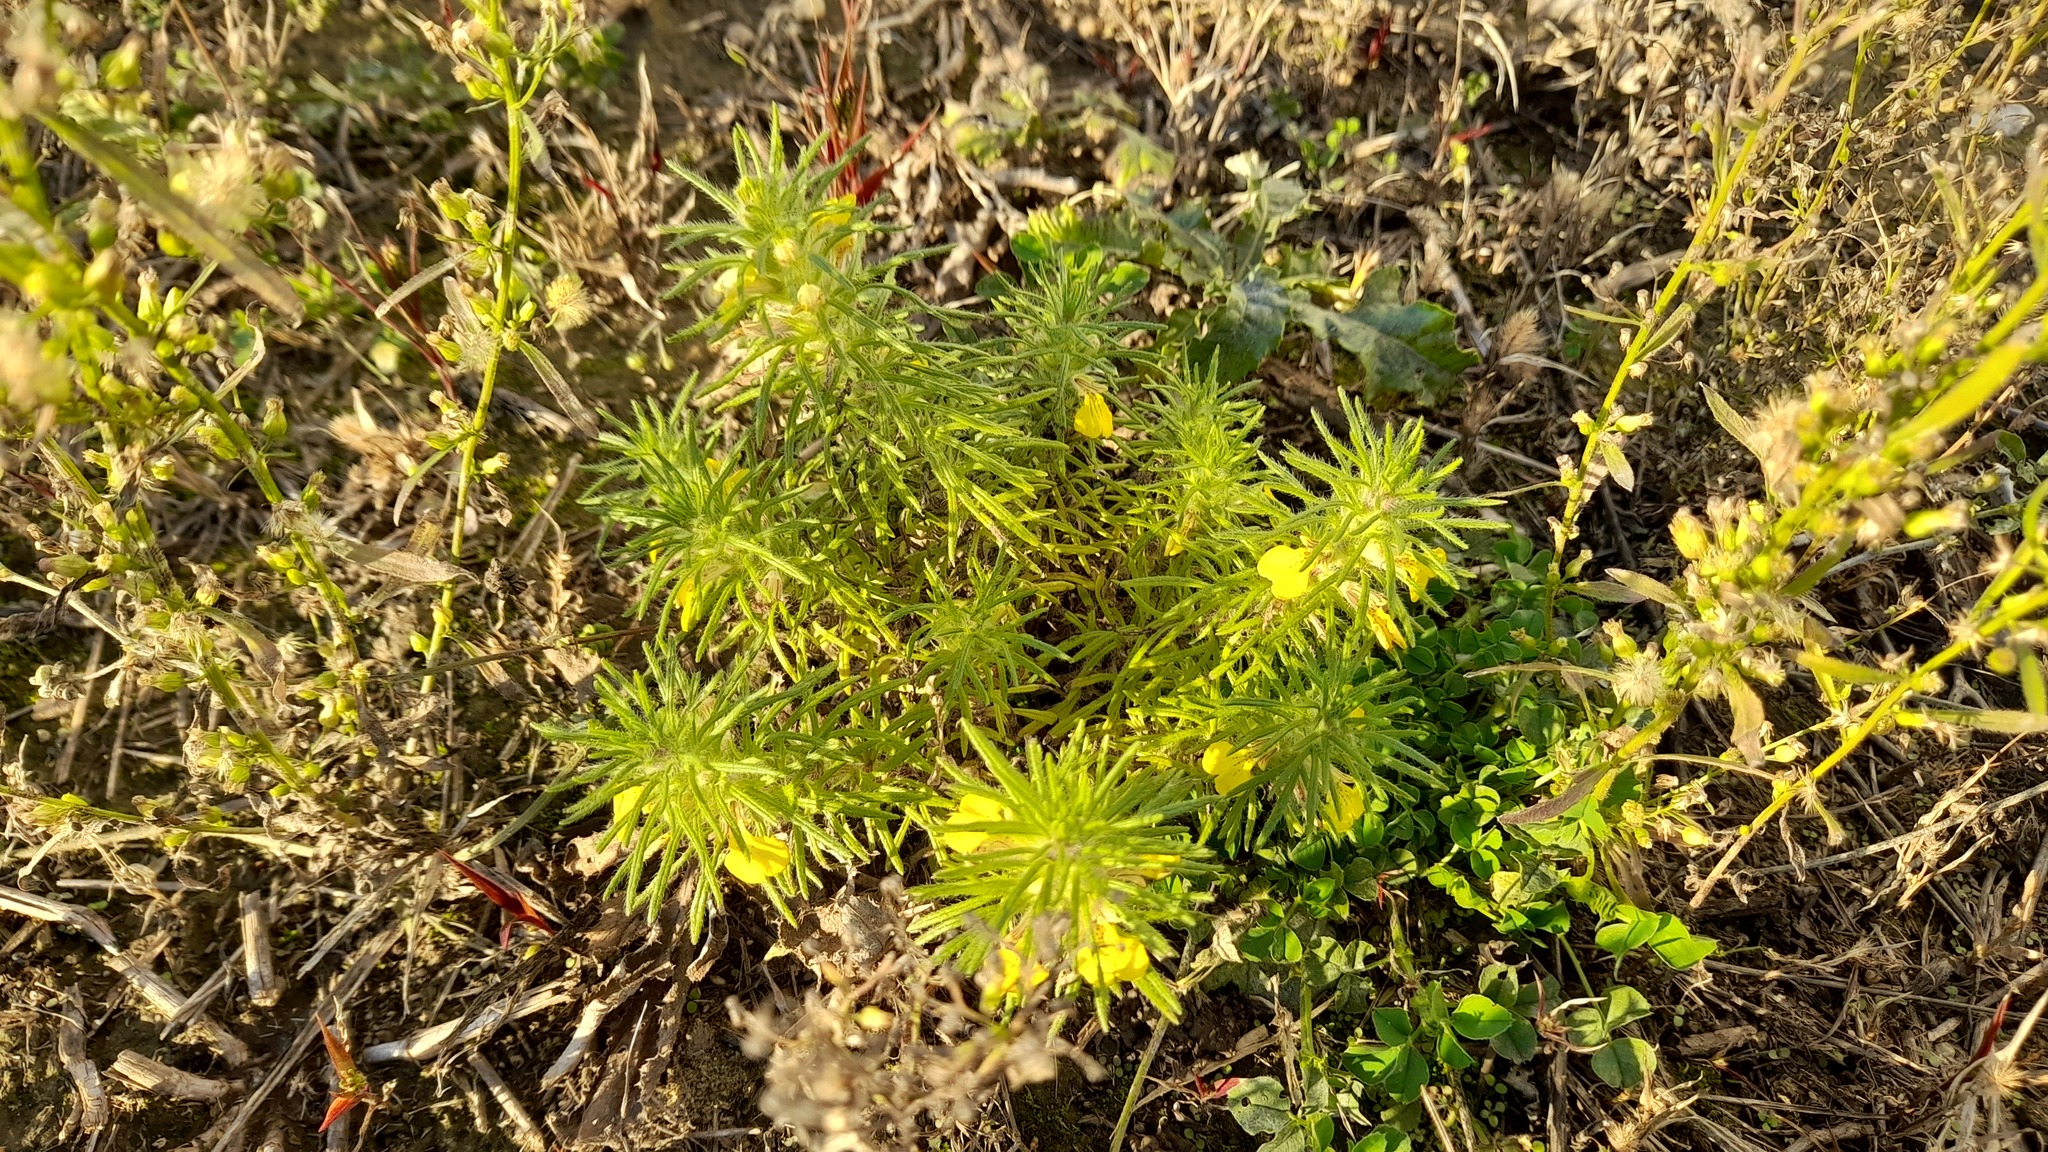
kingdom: Plantae
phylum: Tracheophyta
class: Magnoliopsida
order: Lamiales
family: Lamiaceae
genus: Ajuga
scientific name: Ajuga chamaepitys
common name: Ground-pine
